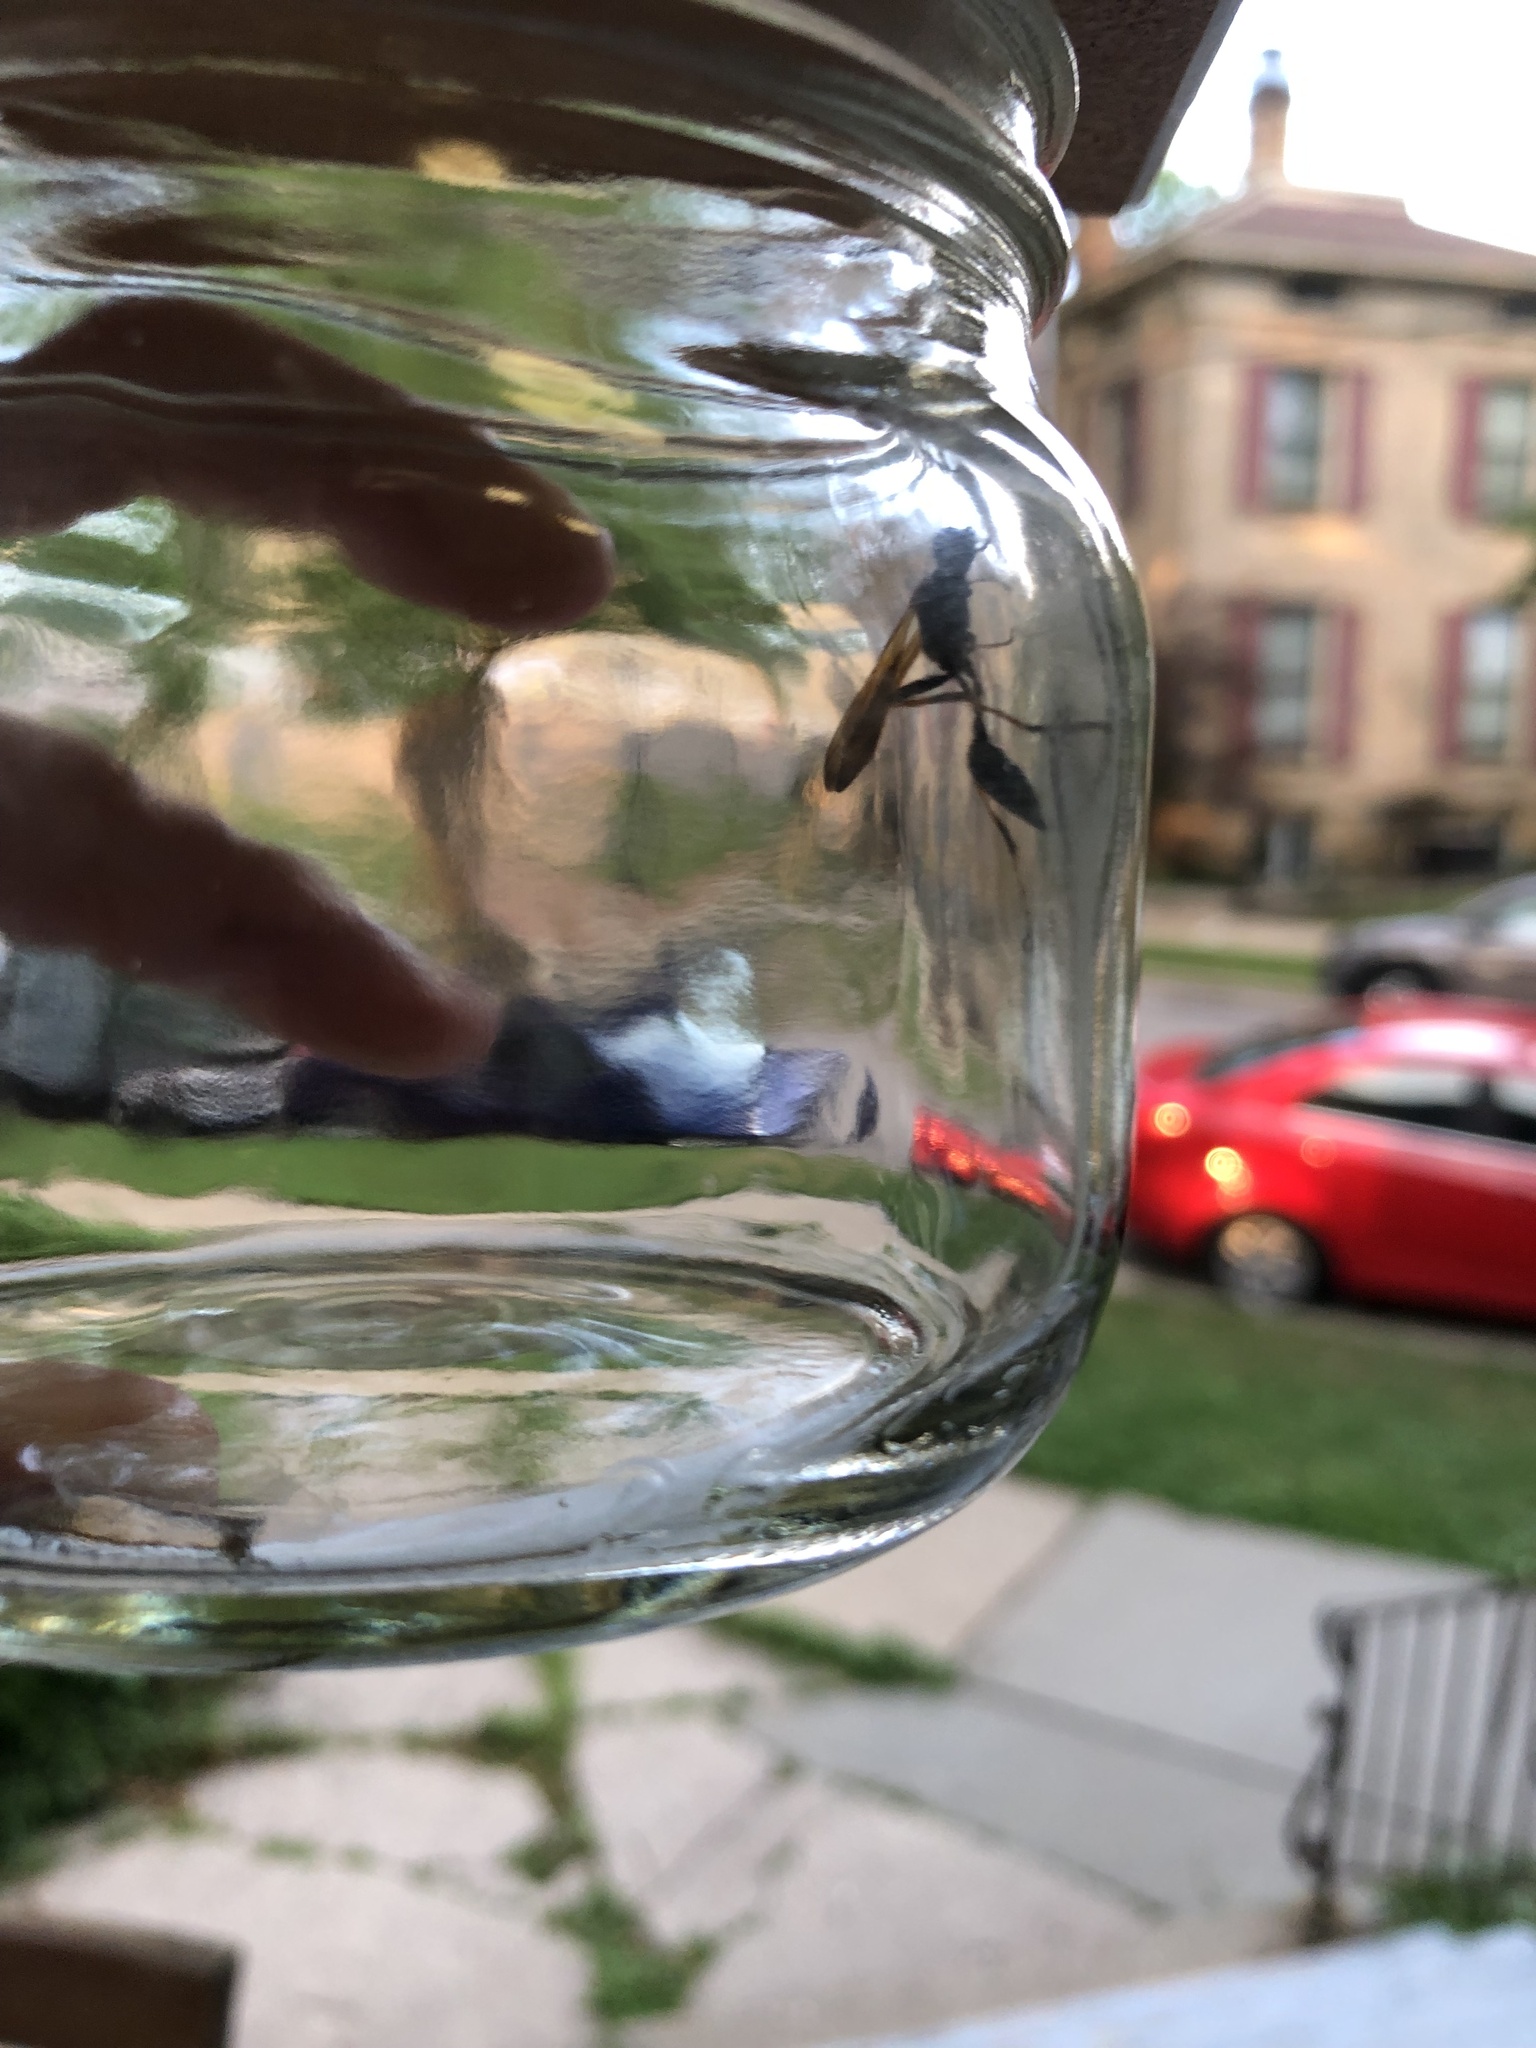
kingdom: Animalia
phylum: Arthropoda
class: Insecta
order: Hymenoptera
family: Sphecidae
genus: Sceliphron
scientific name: Sceliphron caementarium
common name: Mud dauber
